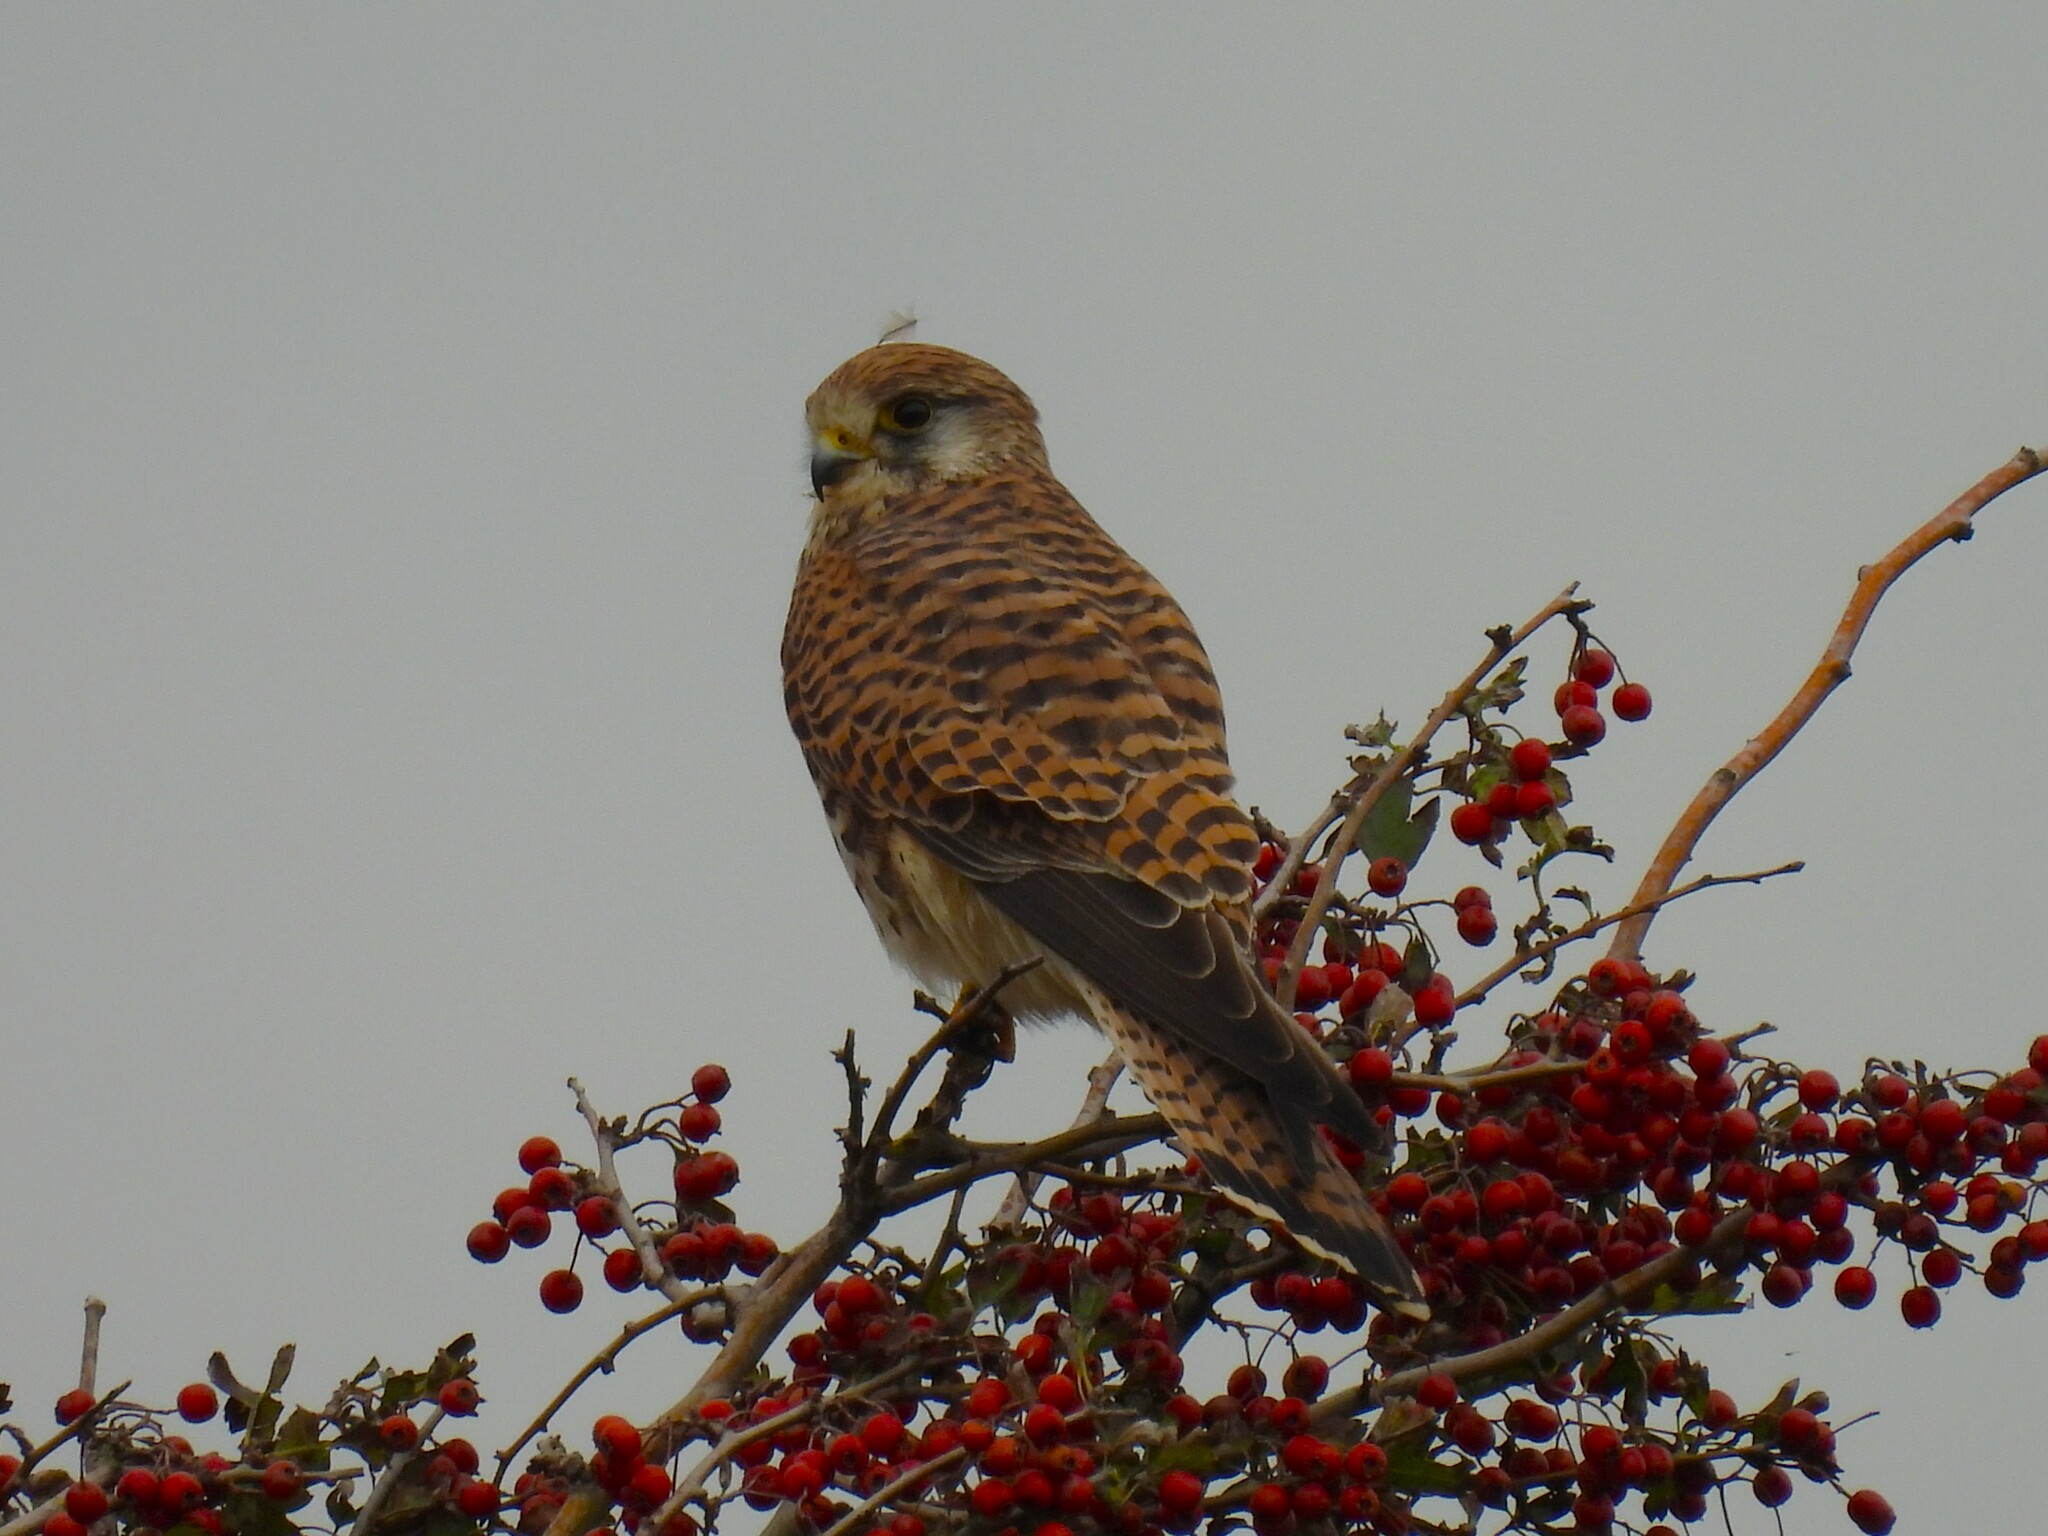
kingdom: Animalia
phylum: Chordata
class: Aves
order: Falconiformes
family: Falconidae
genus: Falco
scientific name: Falco tinnunculus
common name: Common kestrel
